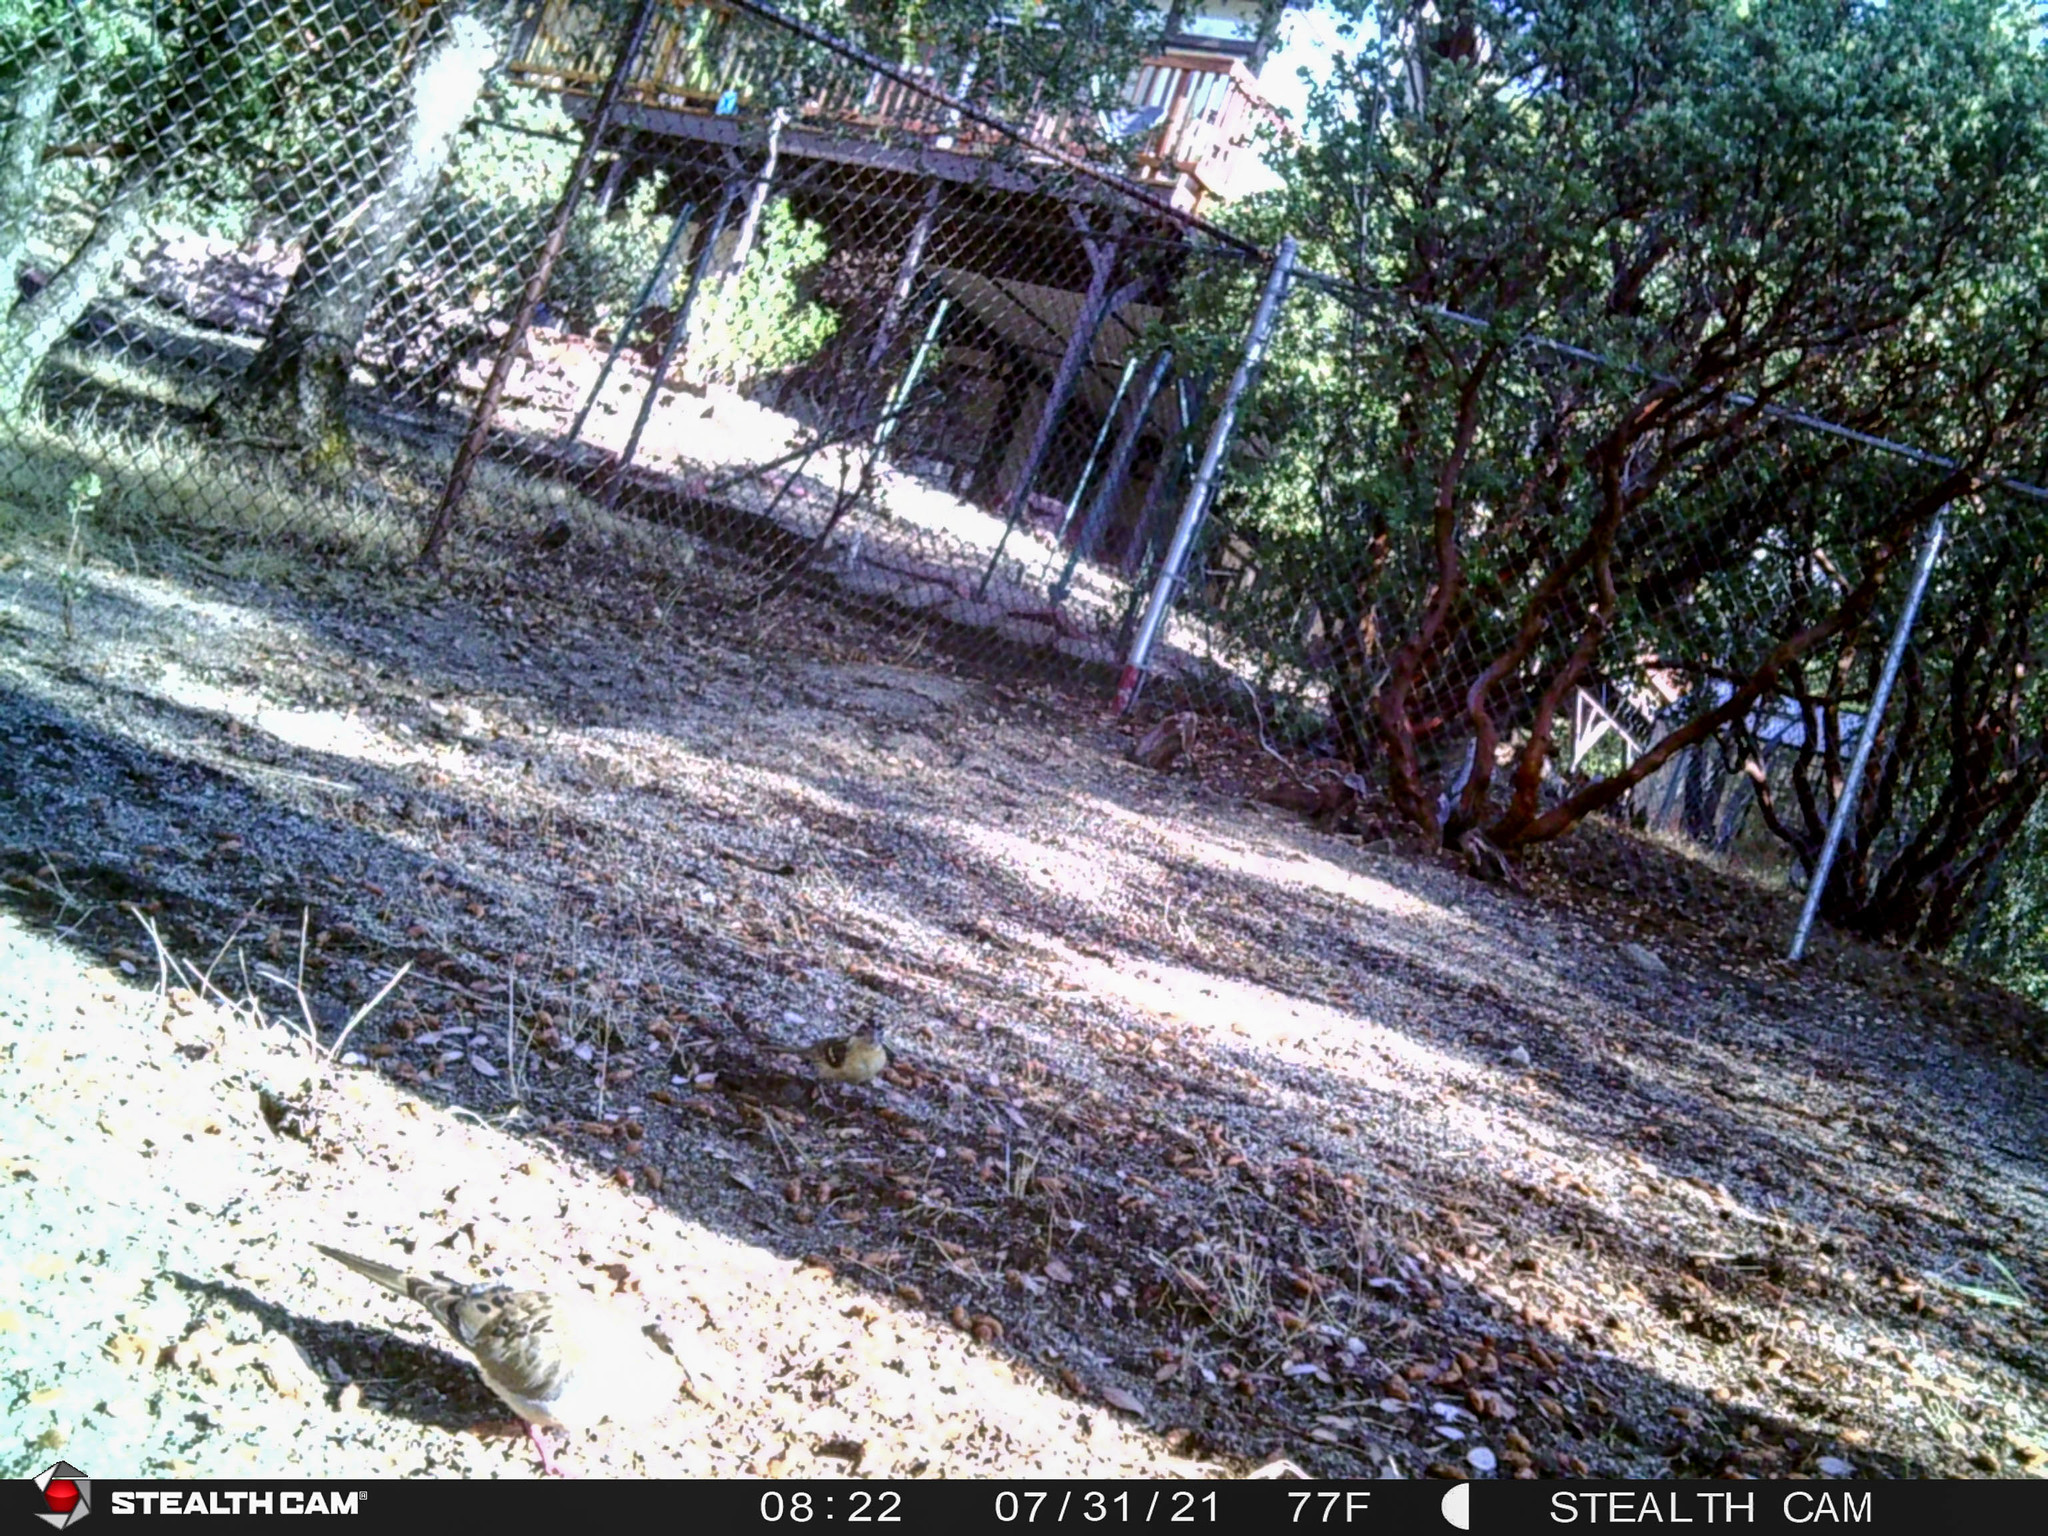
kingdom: Animalia
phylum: Chordata
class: Aves
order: Columbiformes
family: Columbidae
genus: Zenaida
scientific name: Zenaida macroura
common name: Mourning dove
